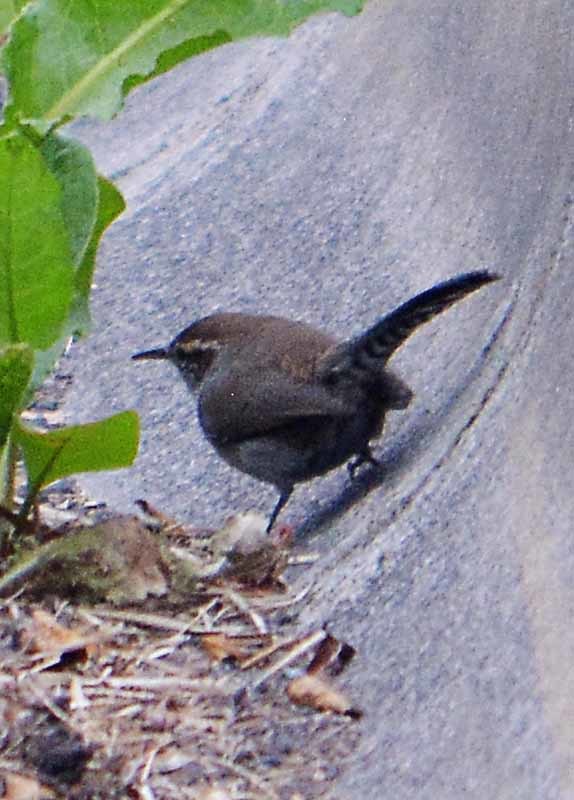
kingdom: Animalia
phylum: Chordata
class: Aves
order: Passeriformes
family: Troglodytidae
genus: Thryomanes
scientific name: Thryomanes bewickii
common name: Bewick's wren
